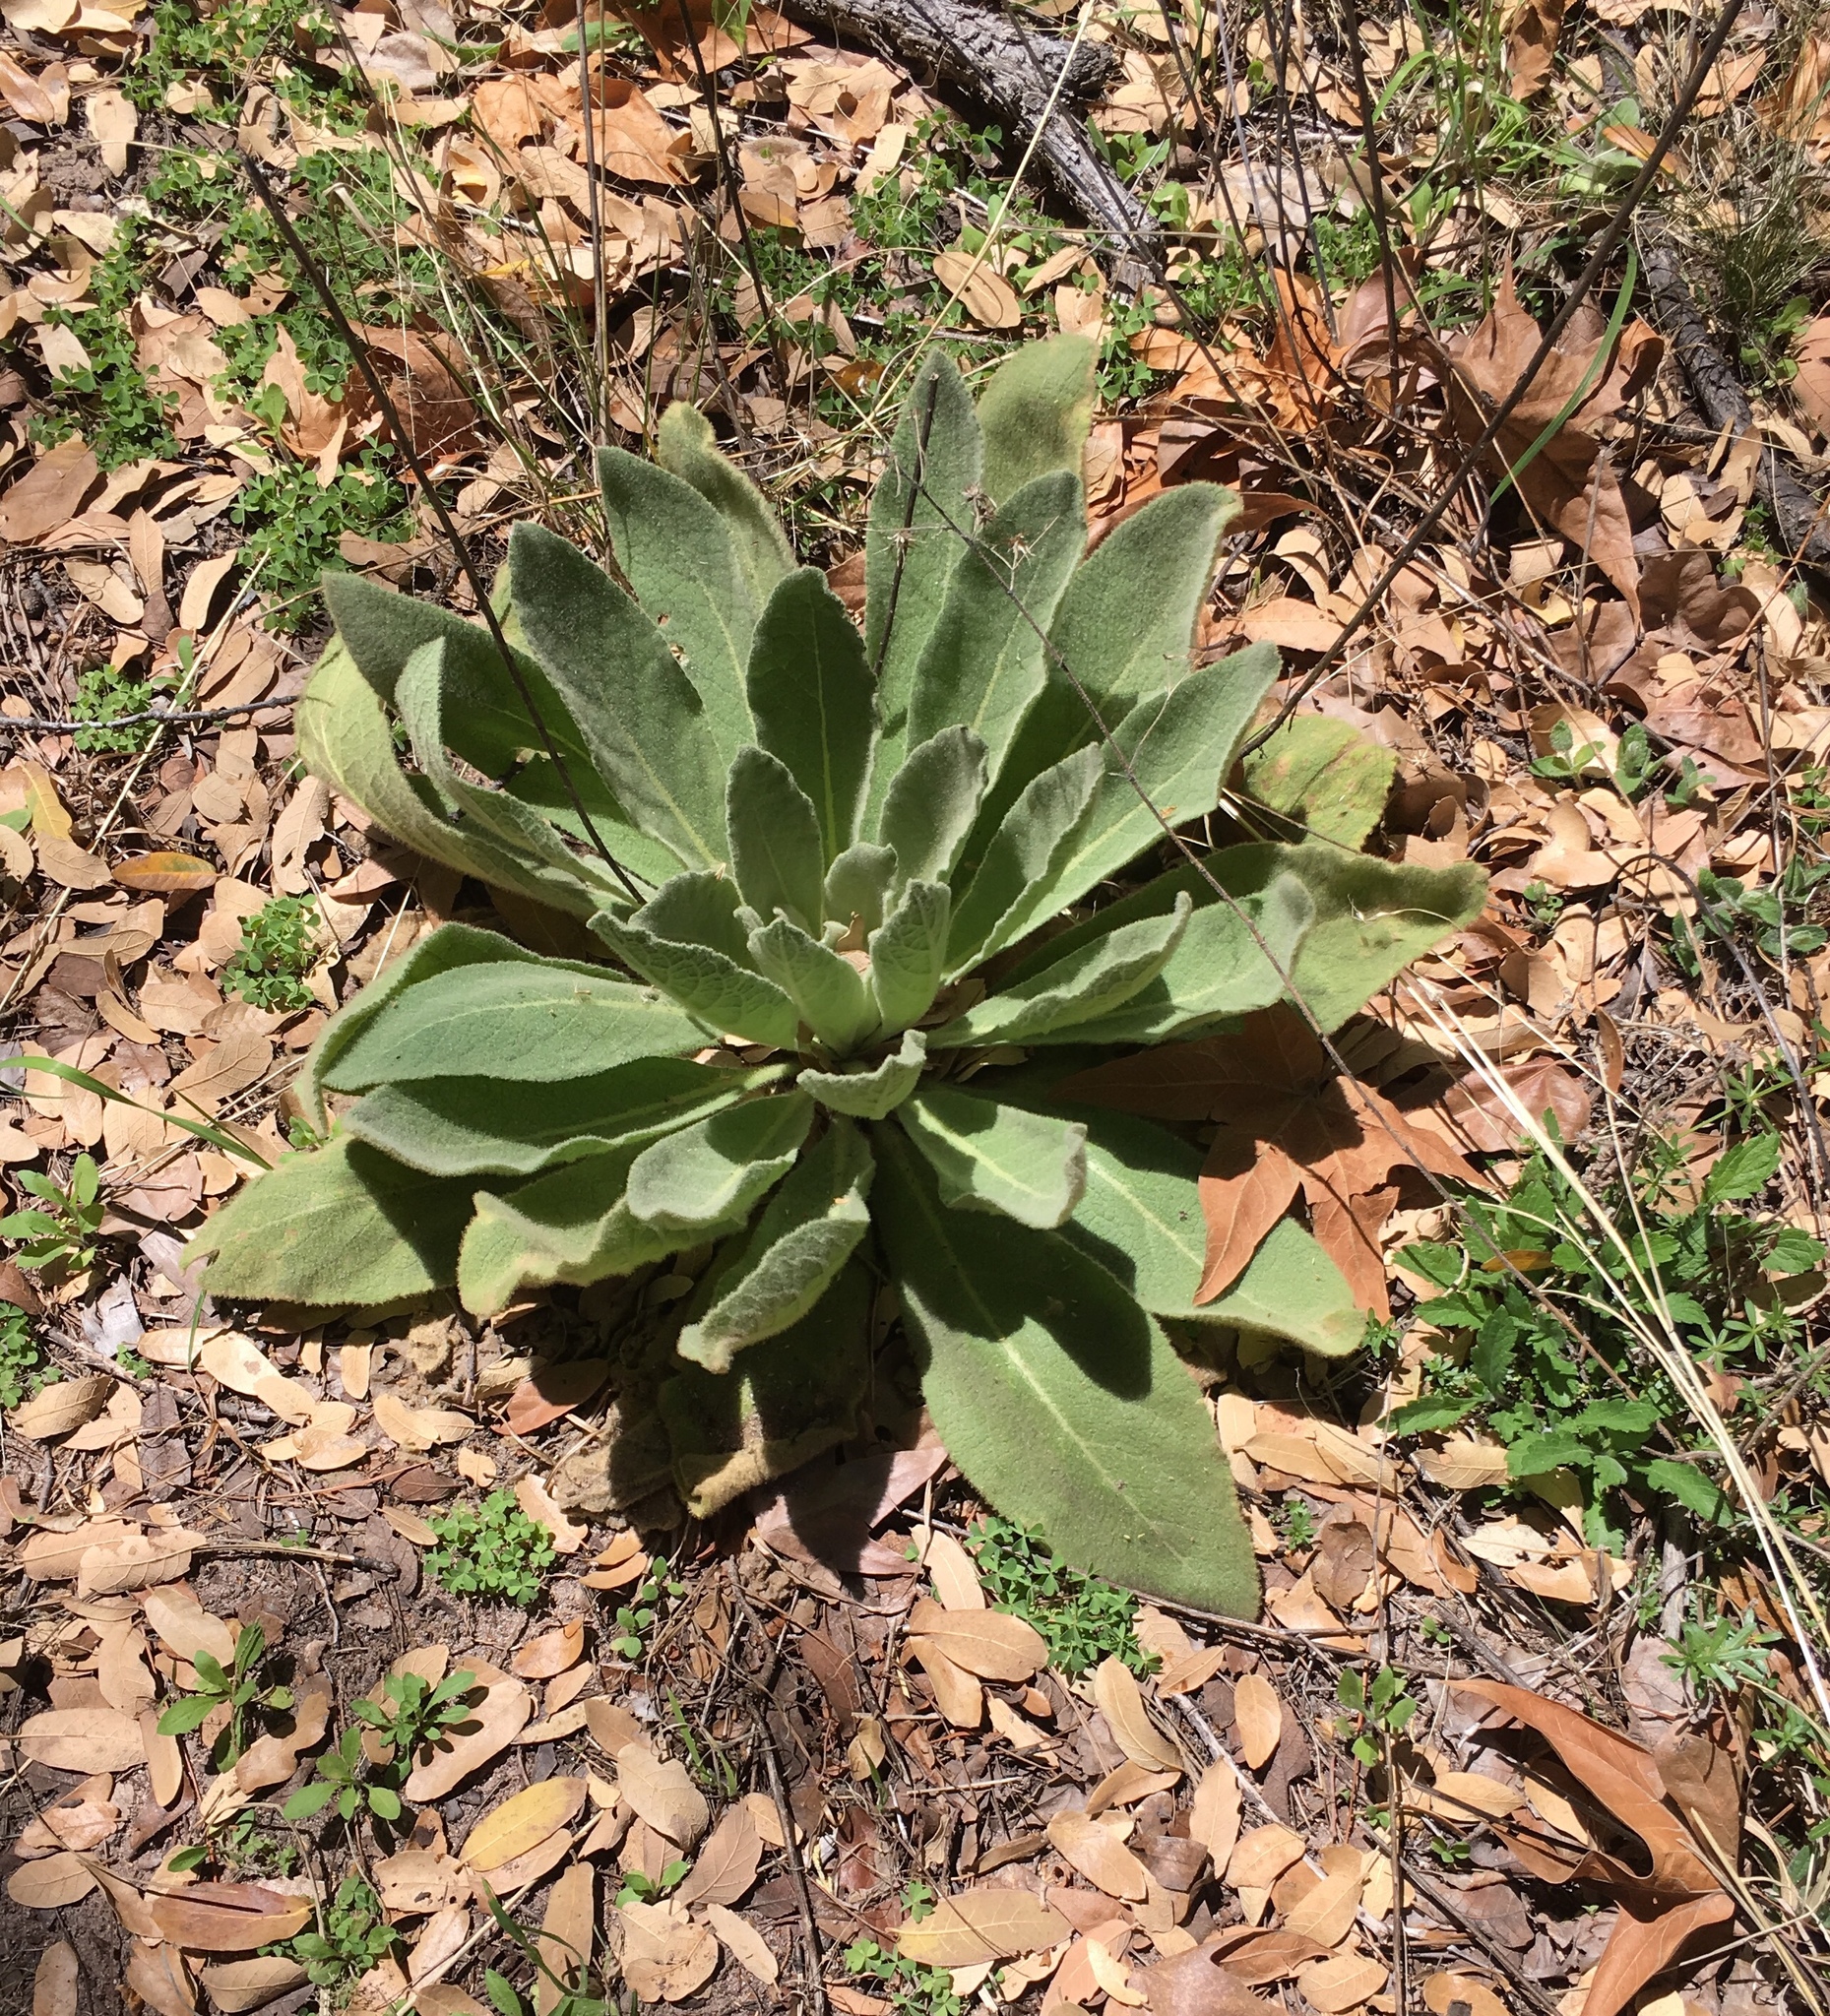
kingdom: Plantae
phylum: Tracheophyta
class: Magnoliopsida
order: Lamiales
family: Scrophulariaceae
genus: Verbascum
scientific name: Verbascum thapsus
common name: Common mullein
